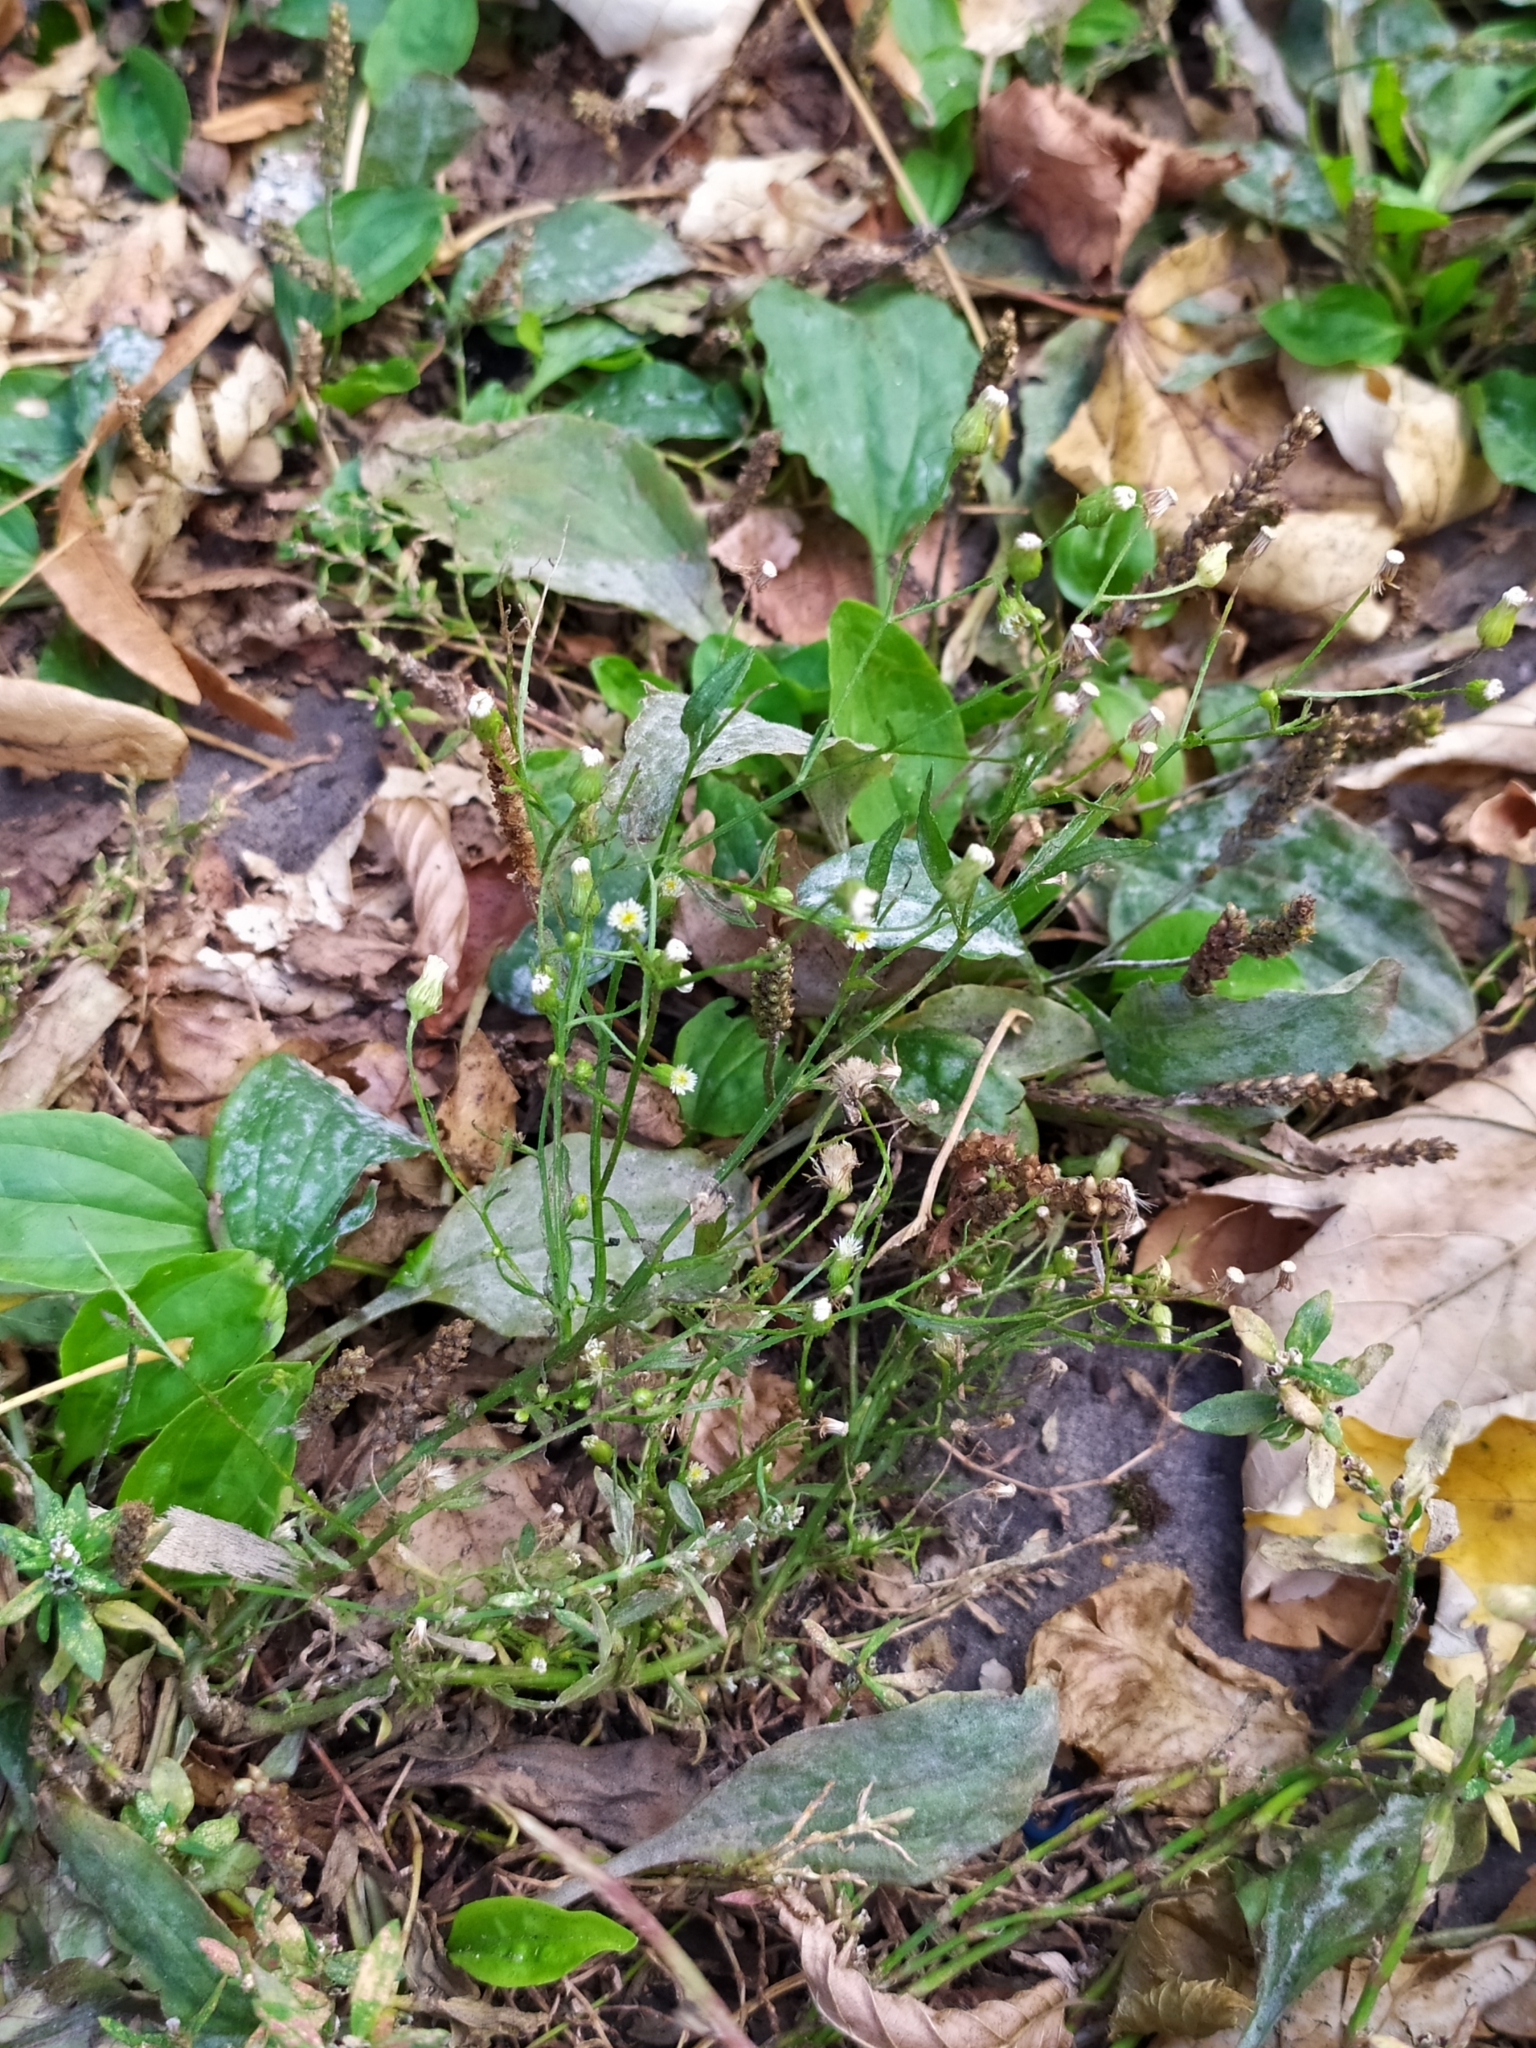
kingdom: Plantae
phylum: Tracheophyta
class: Magnoliopsida
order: Asterales
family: Asteraceae
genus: Erigeron
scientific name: Erigeron canadensis
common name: Canadian fleabane
